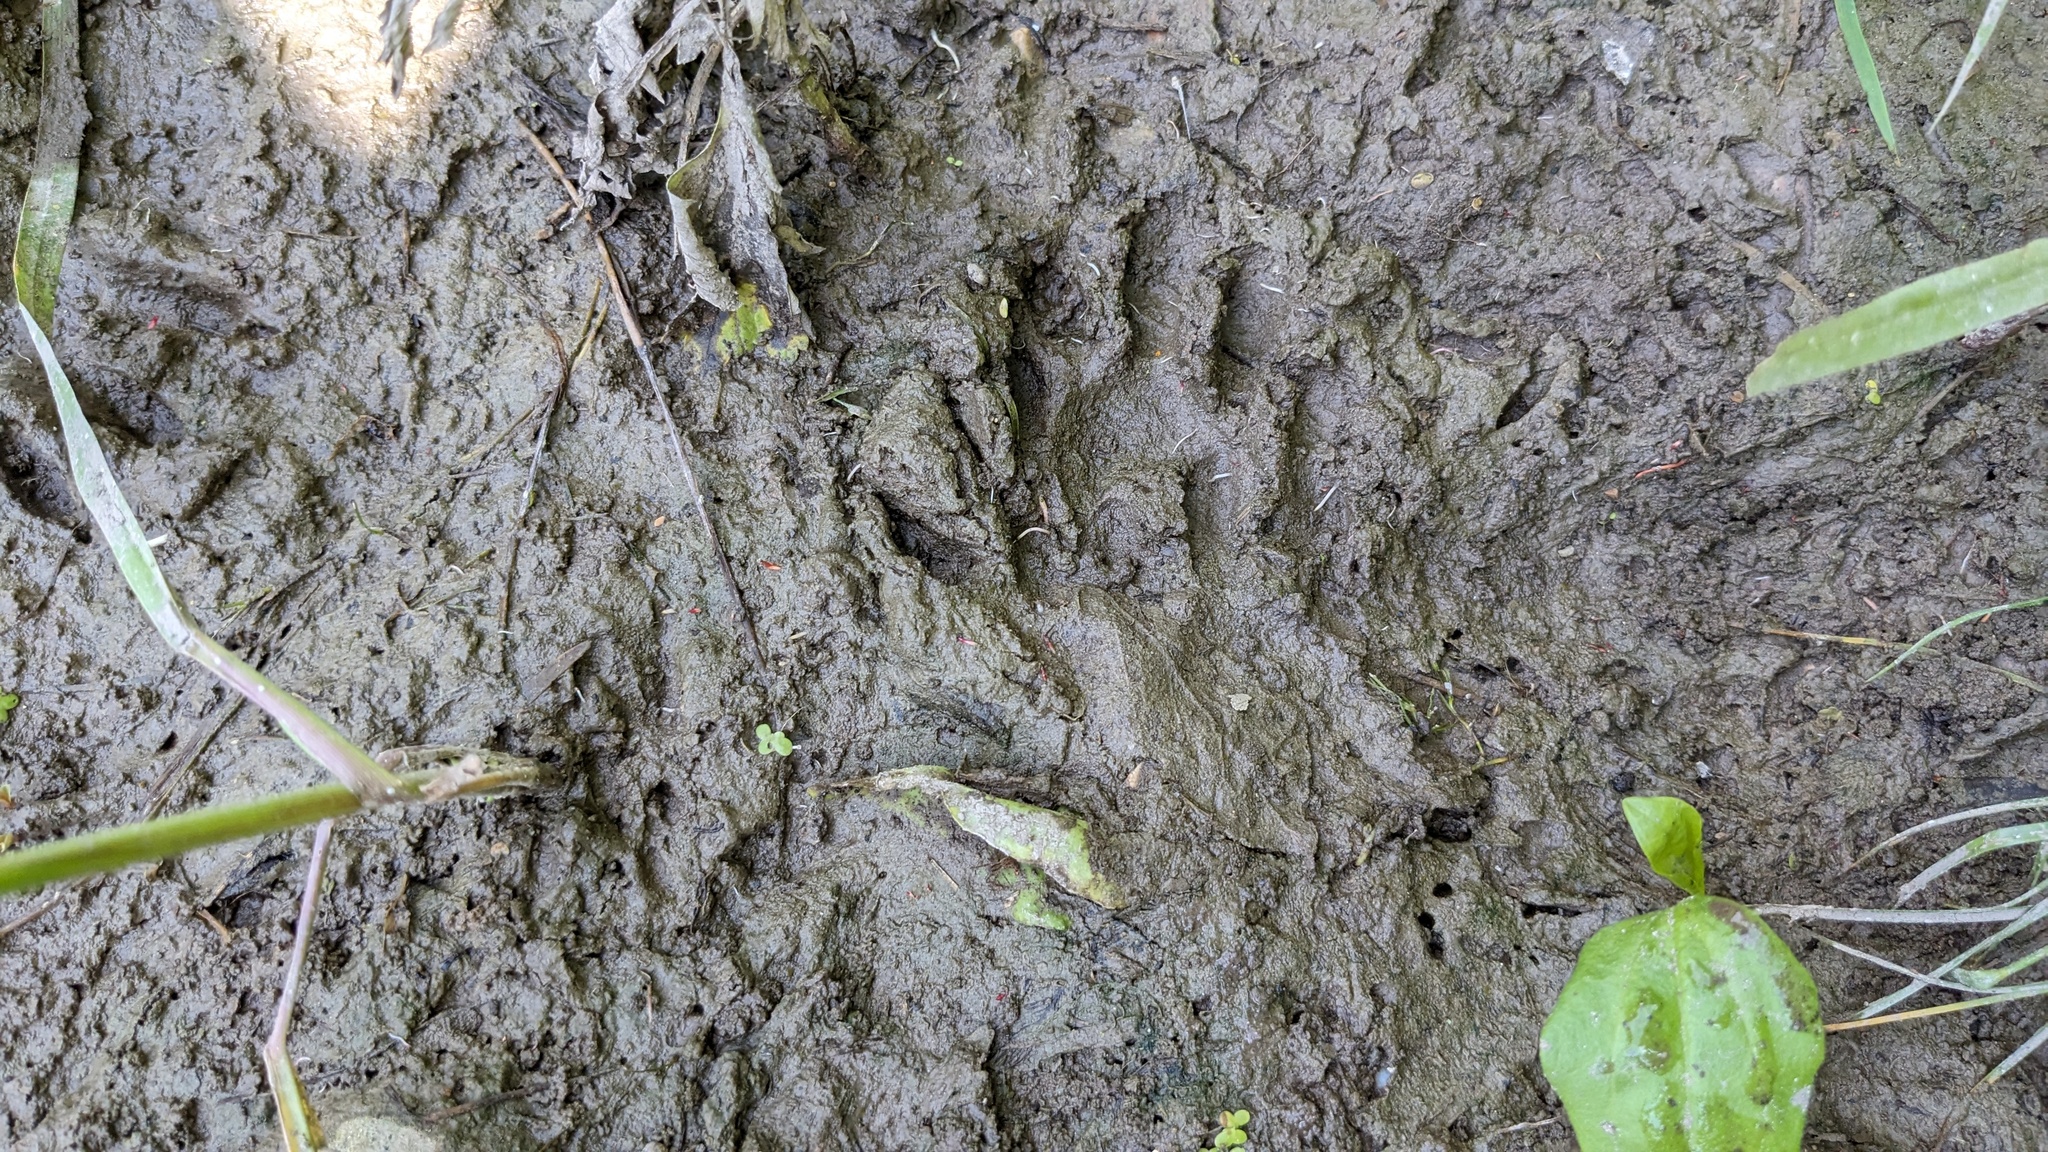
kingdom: Animalia
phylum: Chordata
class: Mammalia
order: Carnivora
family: Procyonidae
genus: Procyon
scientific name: Procyon lotor
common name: Raccoon
